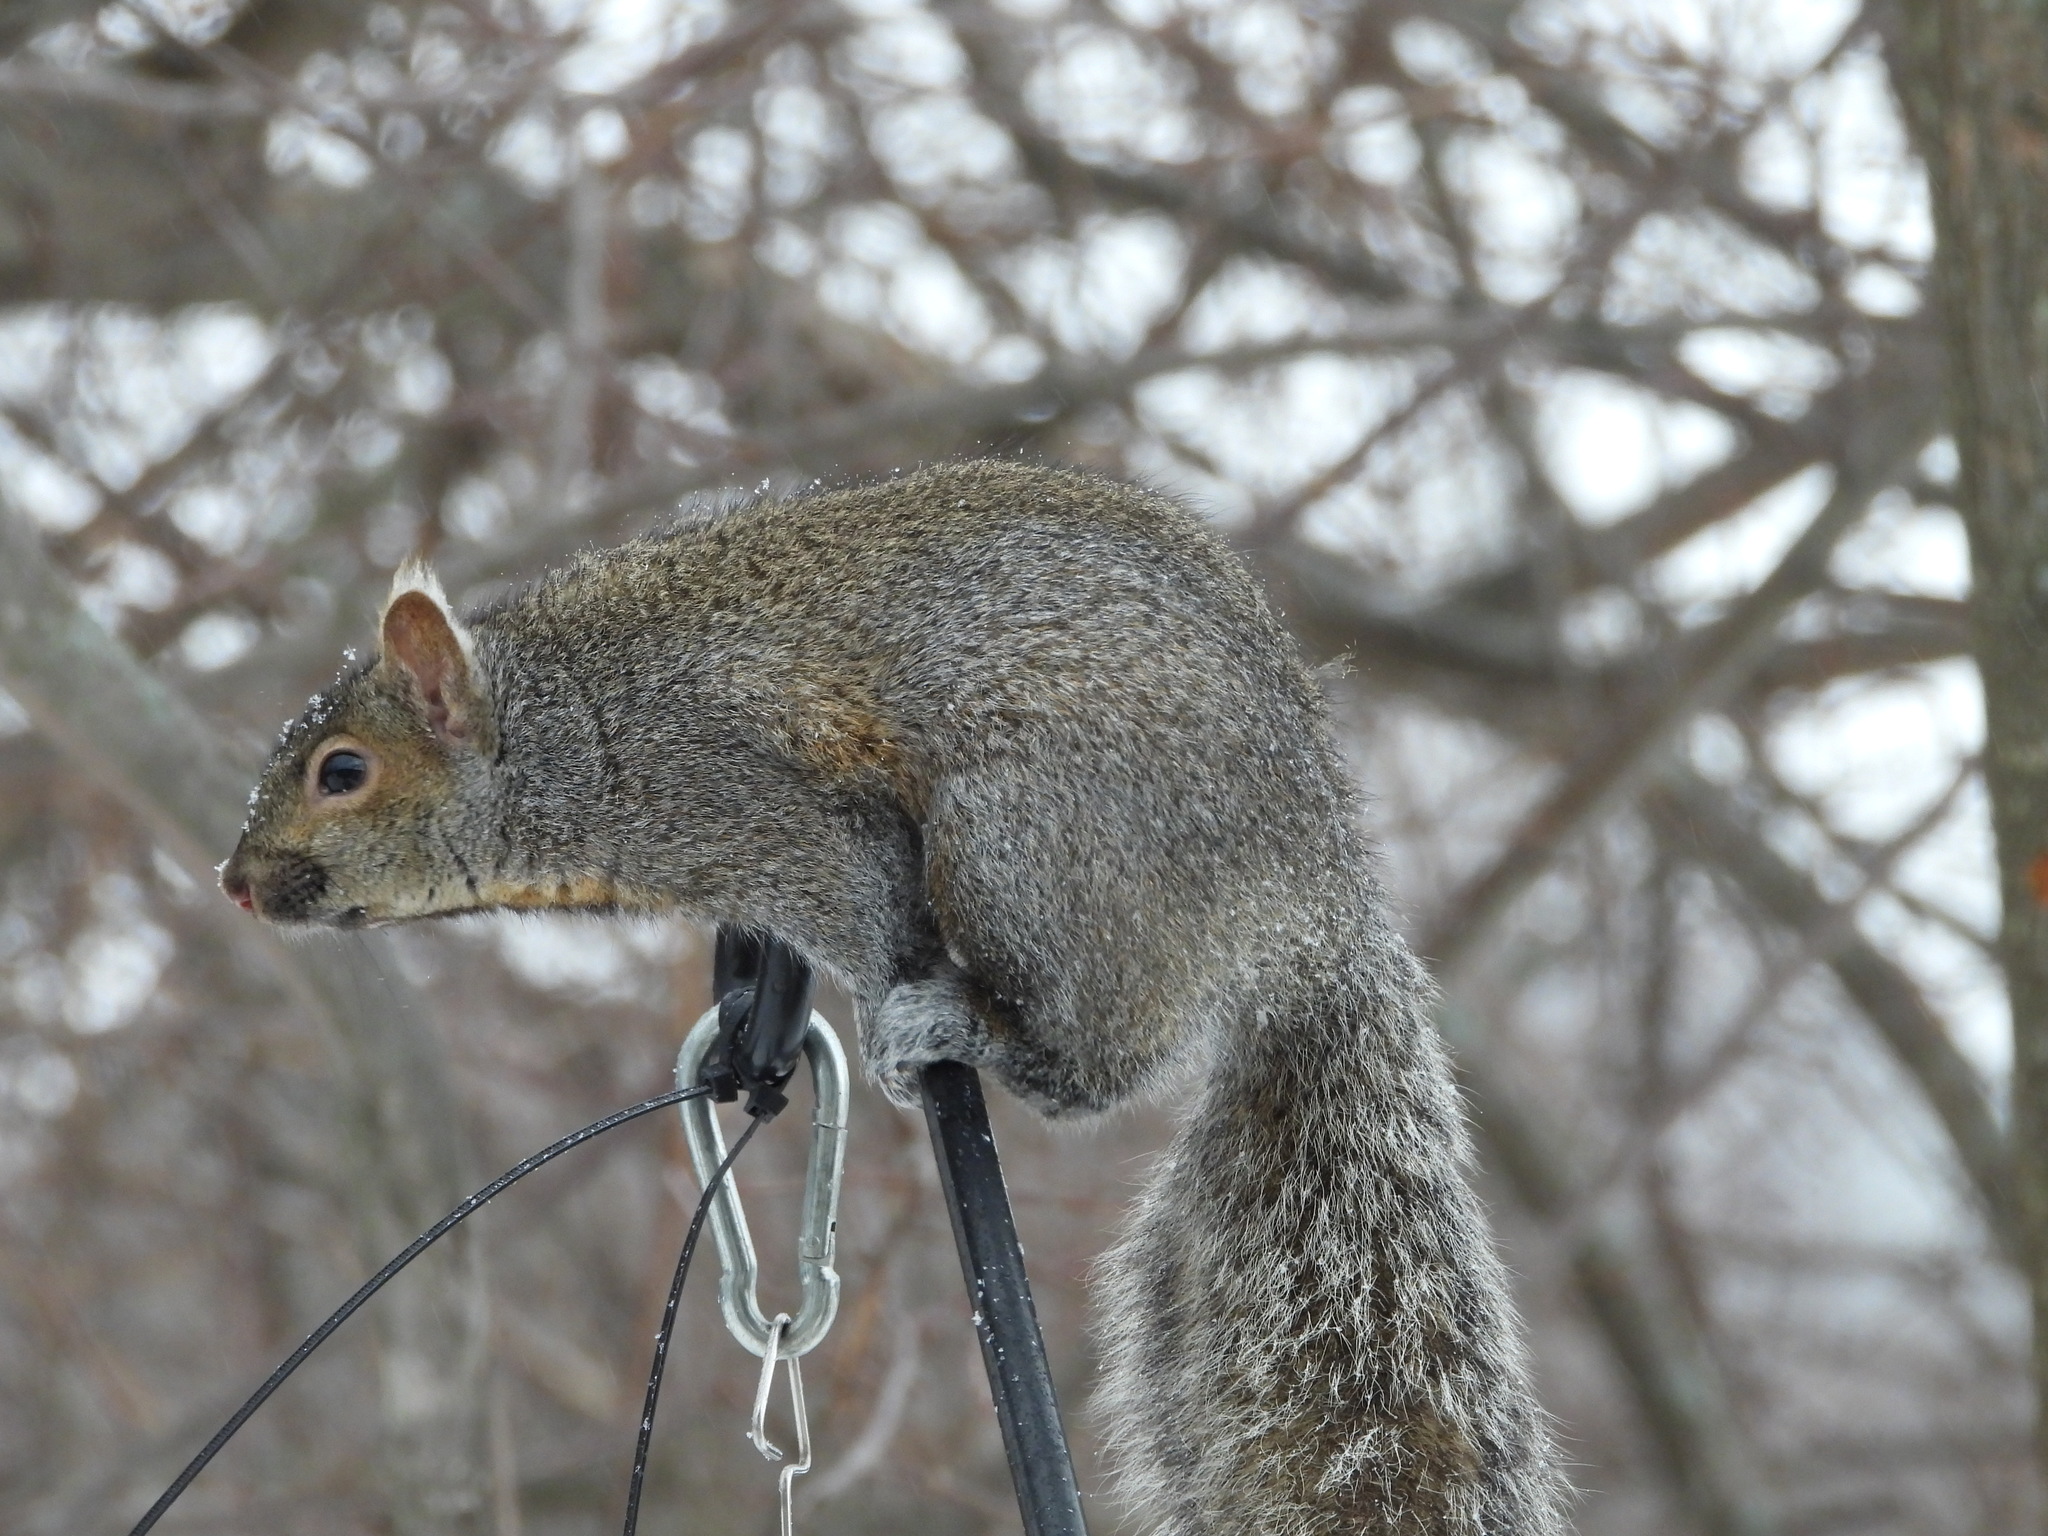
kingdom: Animalia
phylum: Chordata
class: Mammalia
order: Rodentia
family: Sciuridae
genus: Sciurus
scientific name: Sciurus carolinensis
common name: Eastern gray squirrel
